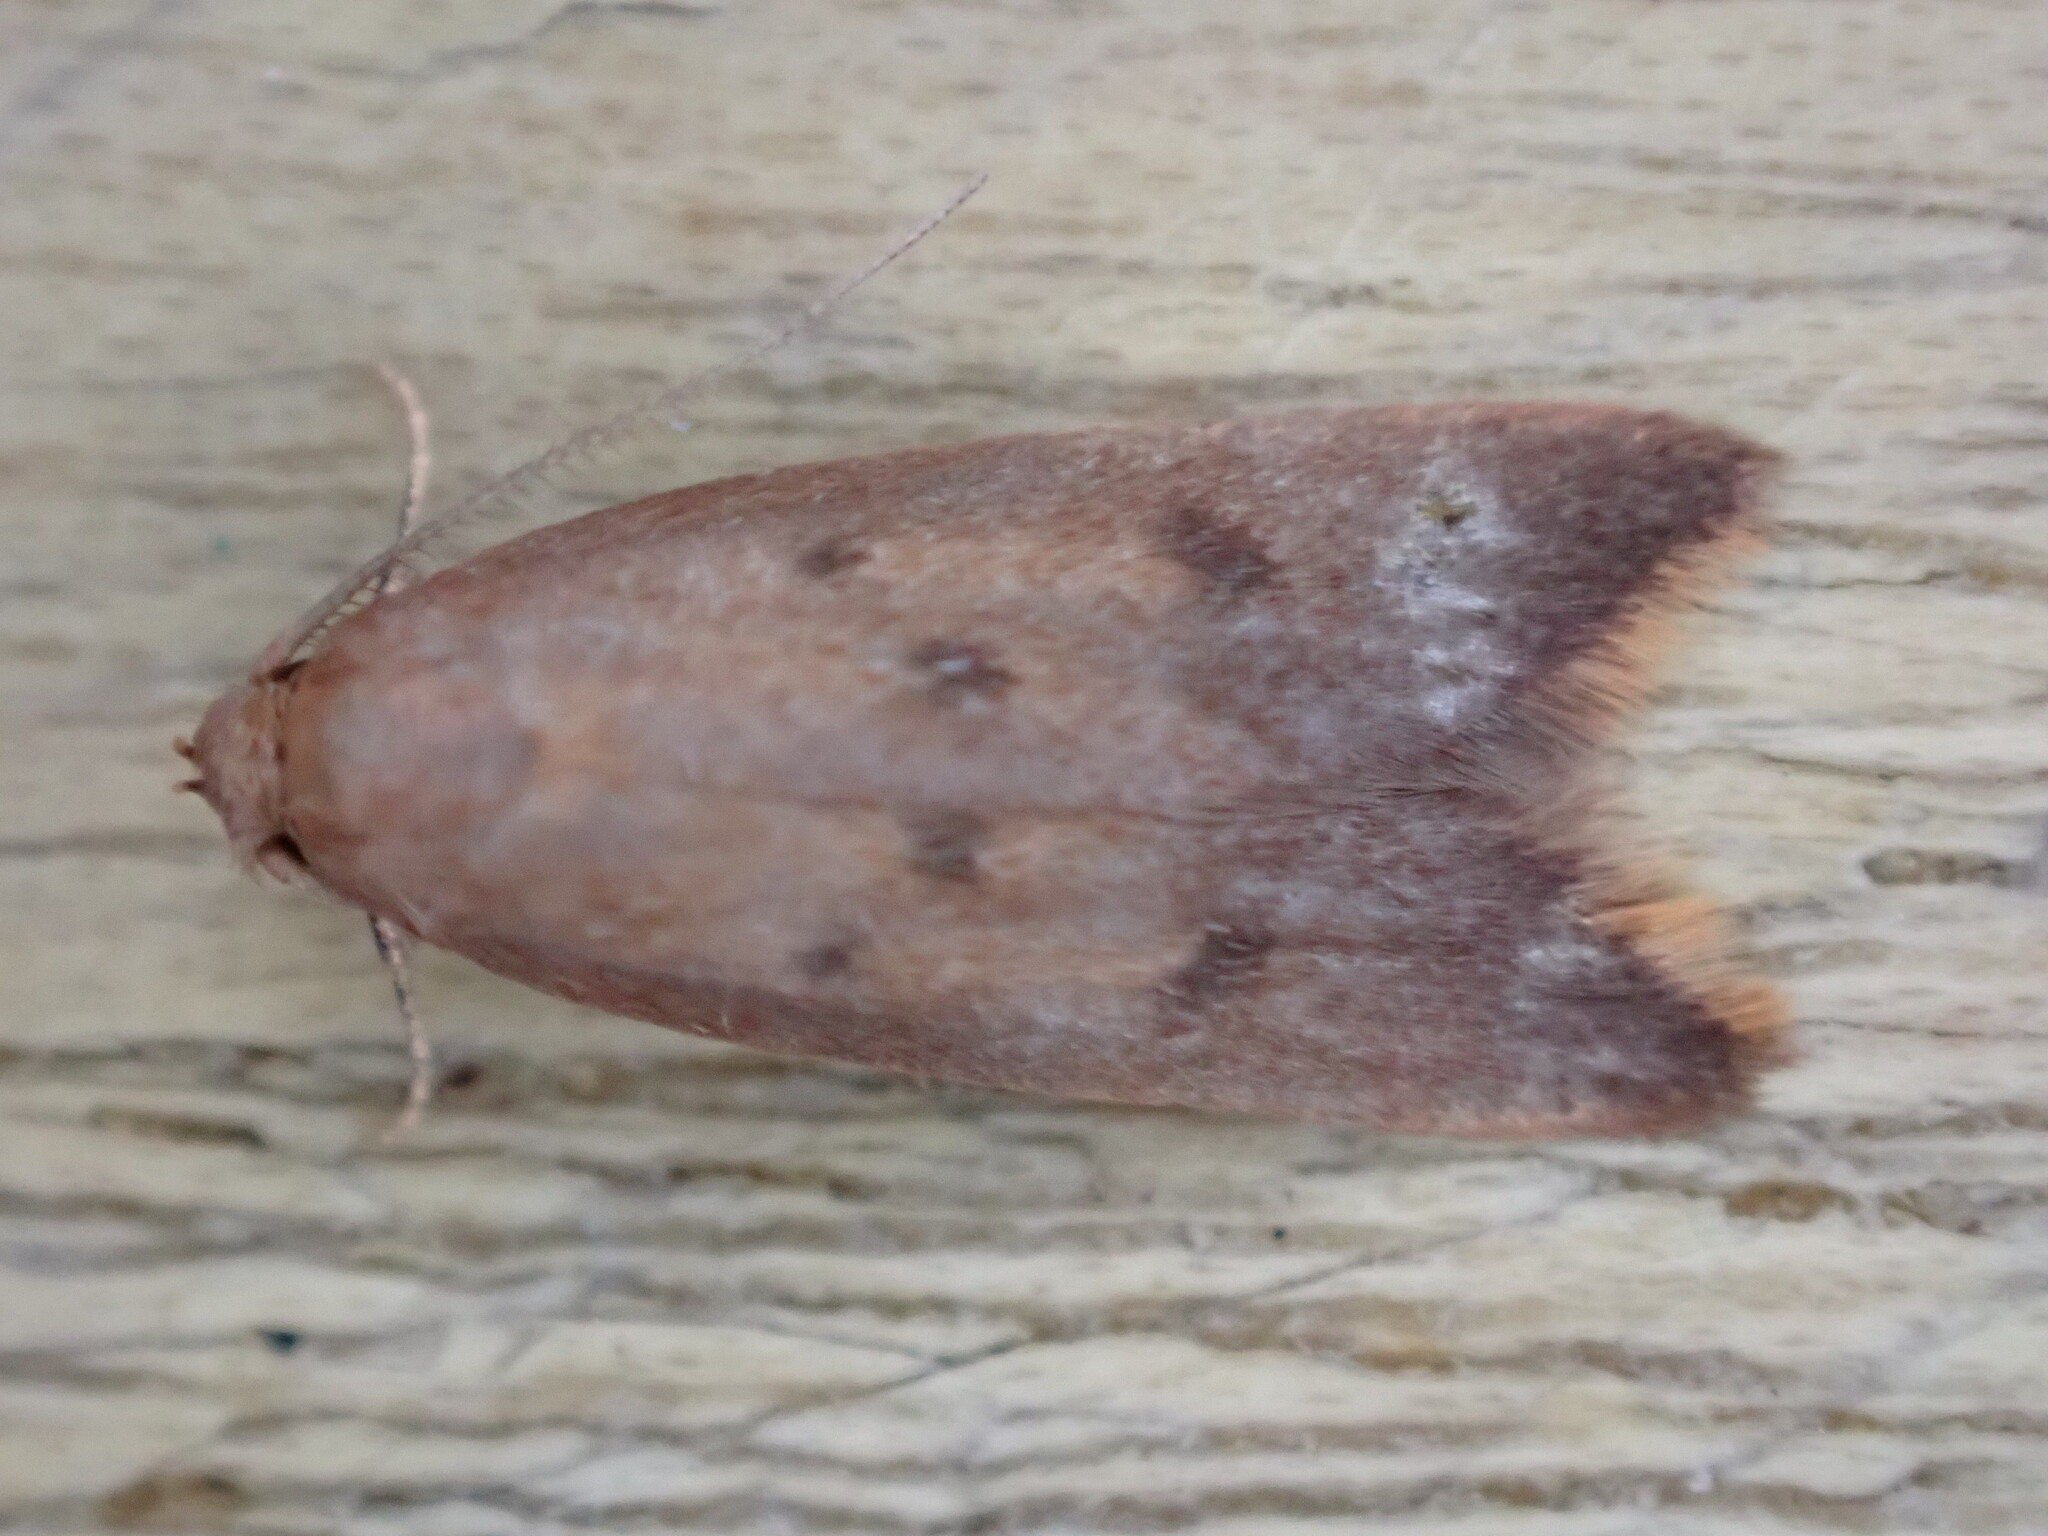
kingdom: Animalia
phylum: Arthropoda
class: Insecta
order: Lepidoptera
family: Oecophoridae
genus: Tachystola
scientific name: Tachystola acroxantha
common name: Ruddy streak
